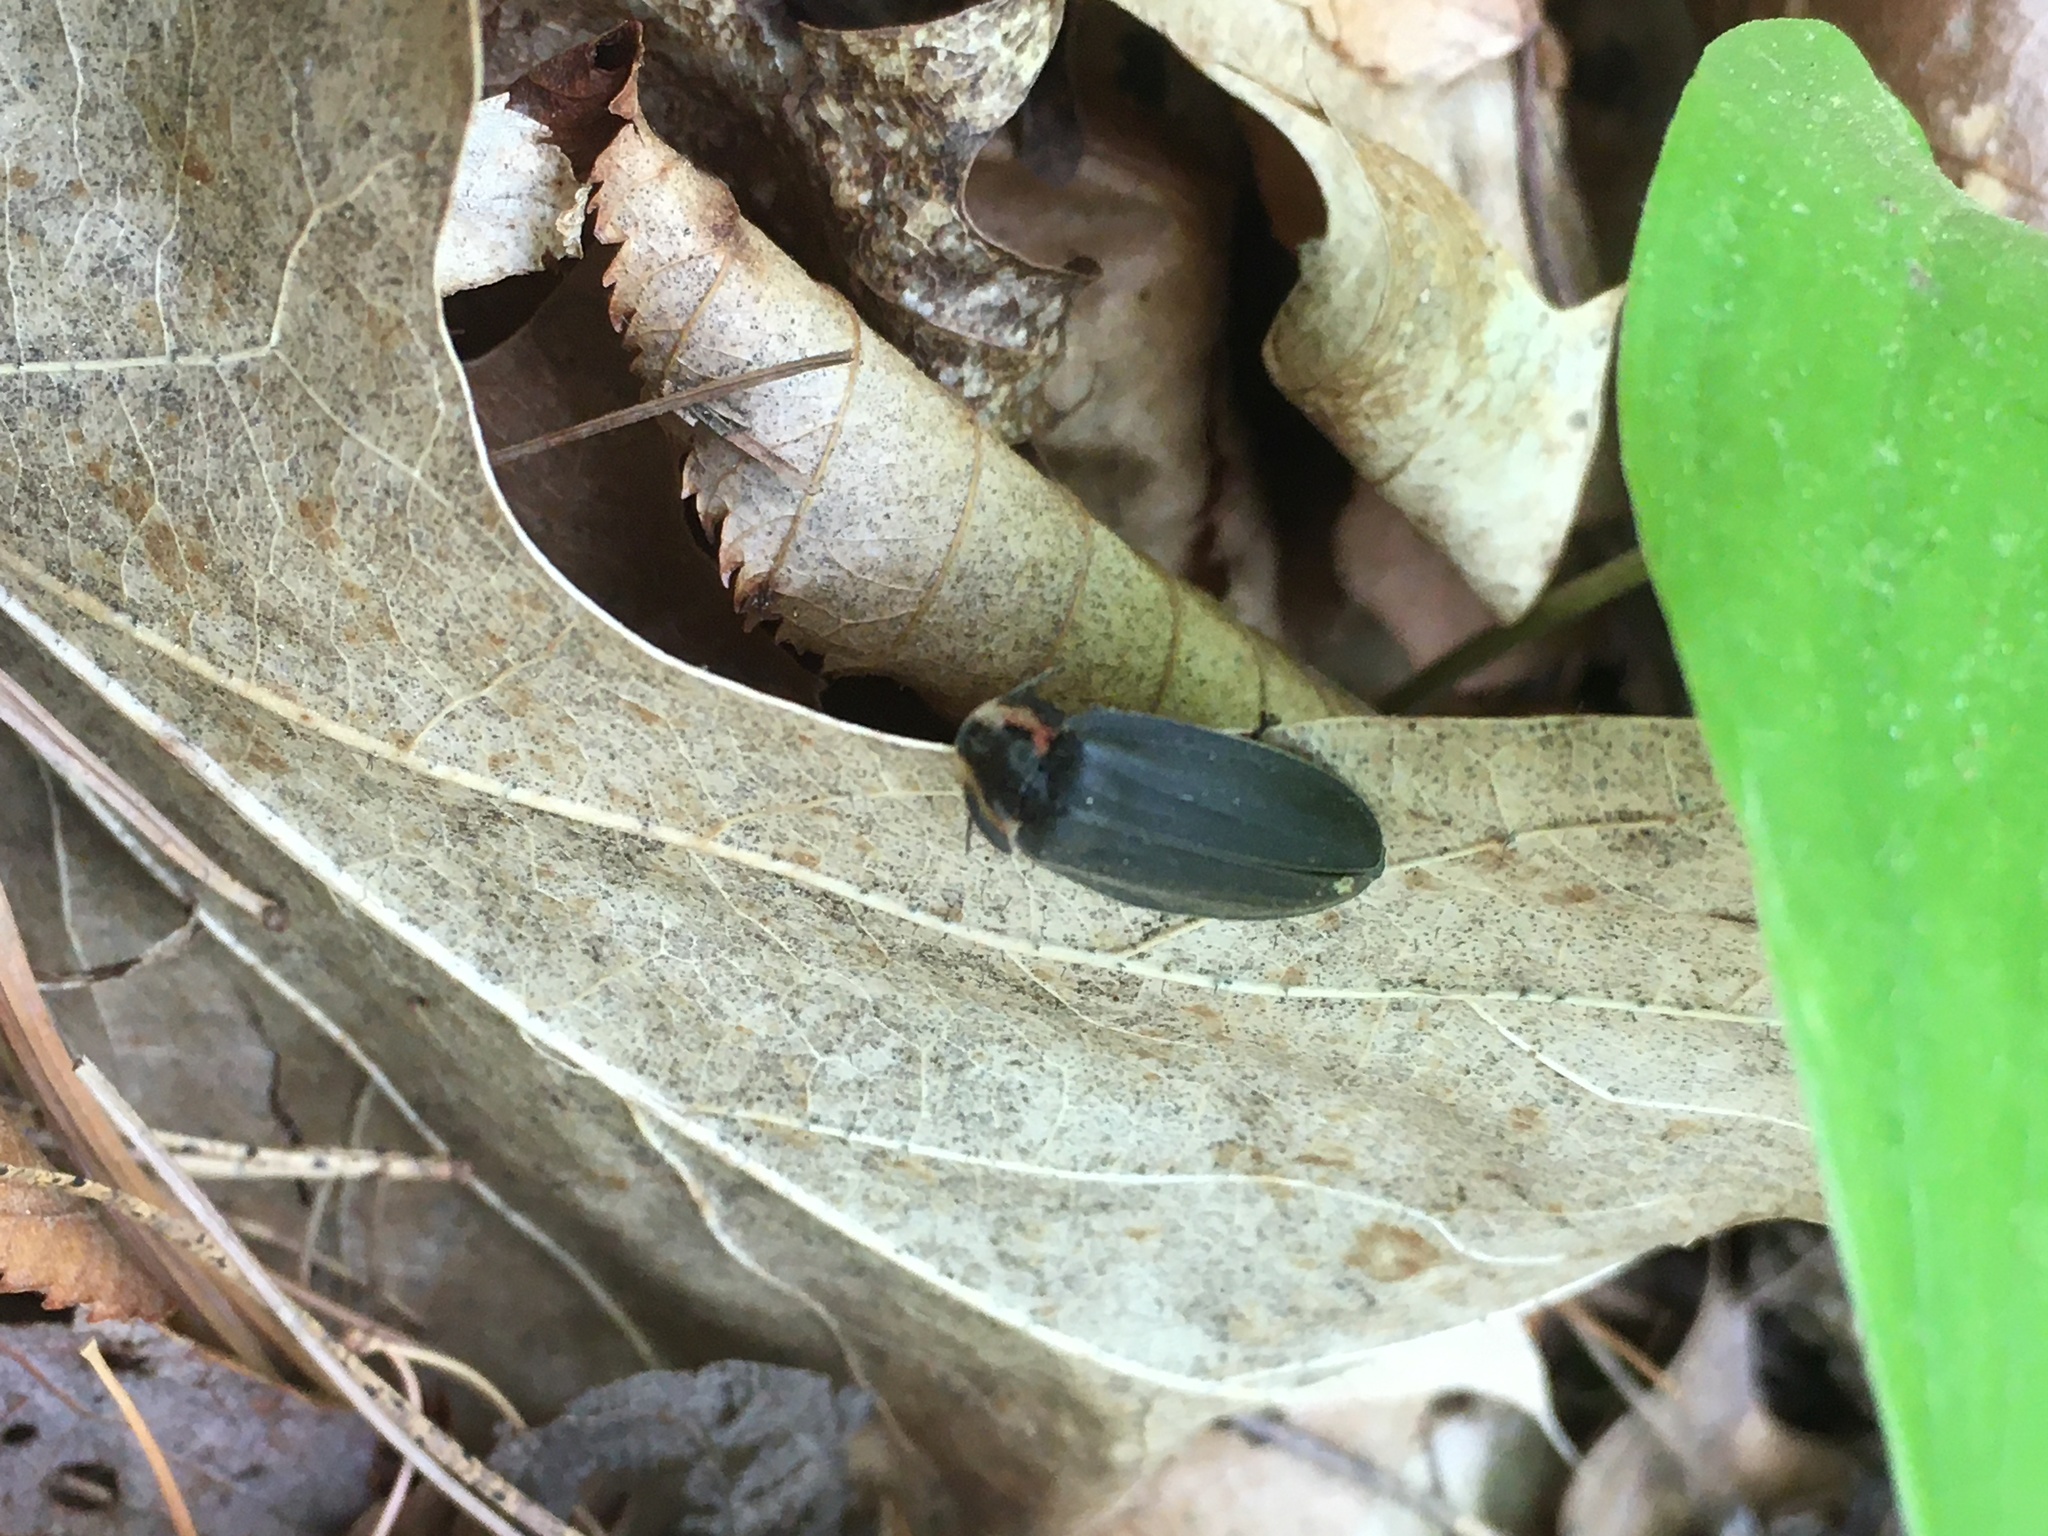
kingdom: Animalia
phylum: Arthropoda
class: Insecta
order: Coleoptera
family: Lampyridae
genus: Photinus
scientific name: Photinus corrusca
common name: Winter firefly
